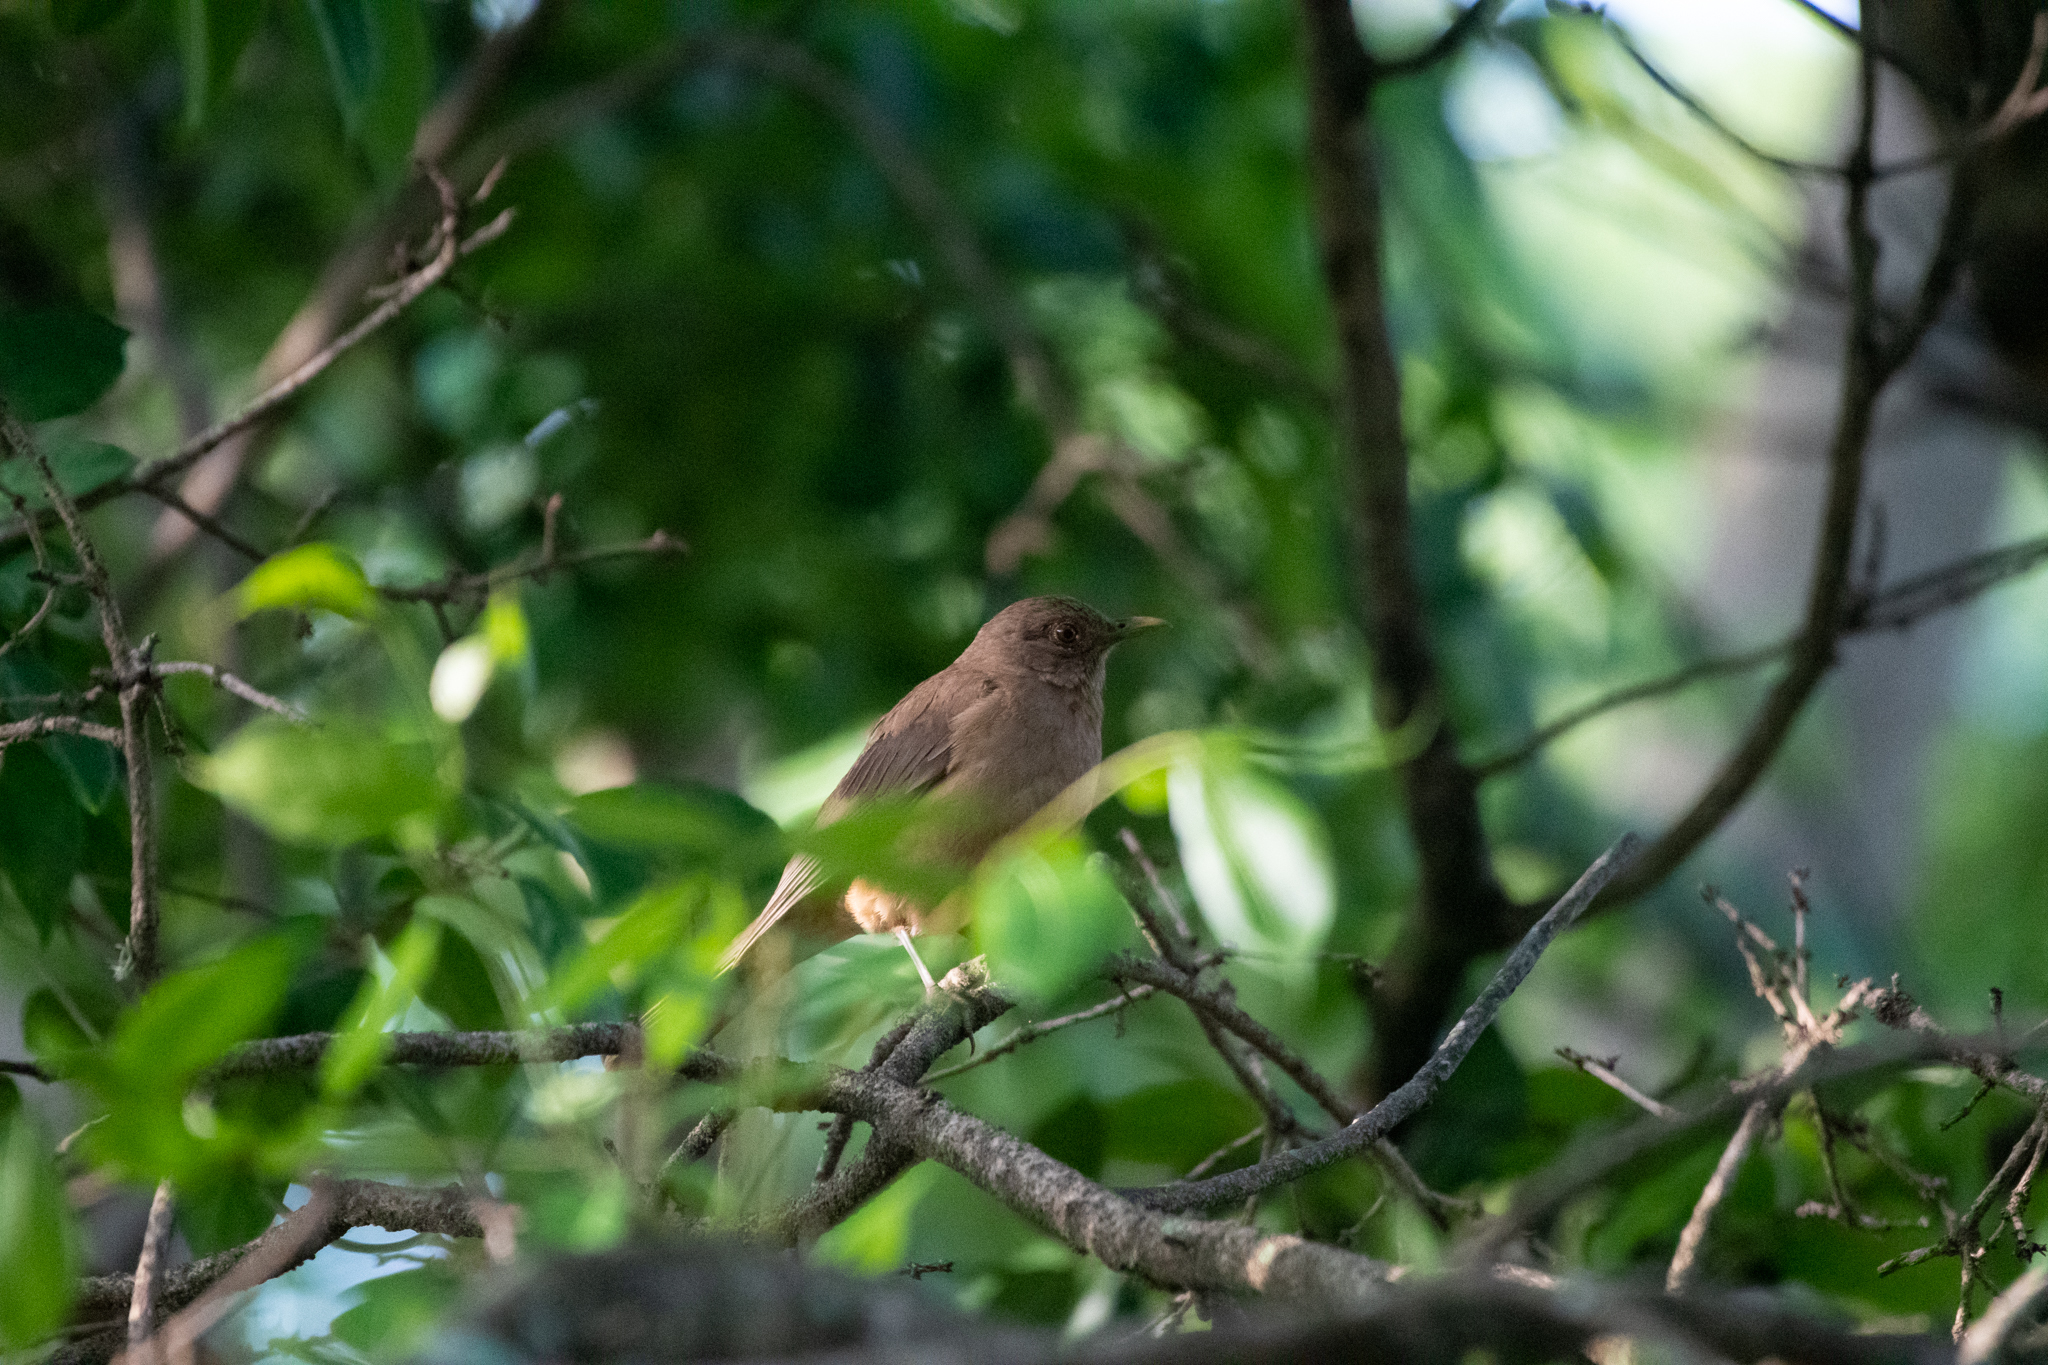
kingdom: Animalia
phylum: Chordata
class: Aves
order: Passeriformes
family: Turdidae
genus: Turdus
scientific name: Turdus grayi
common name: Clay-colored thrush
